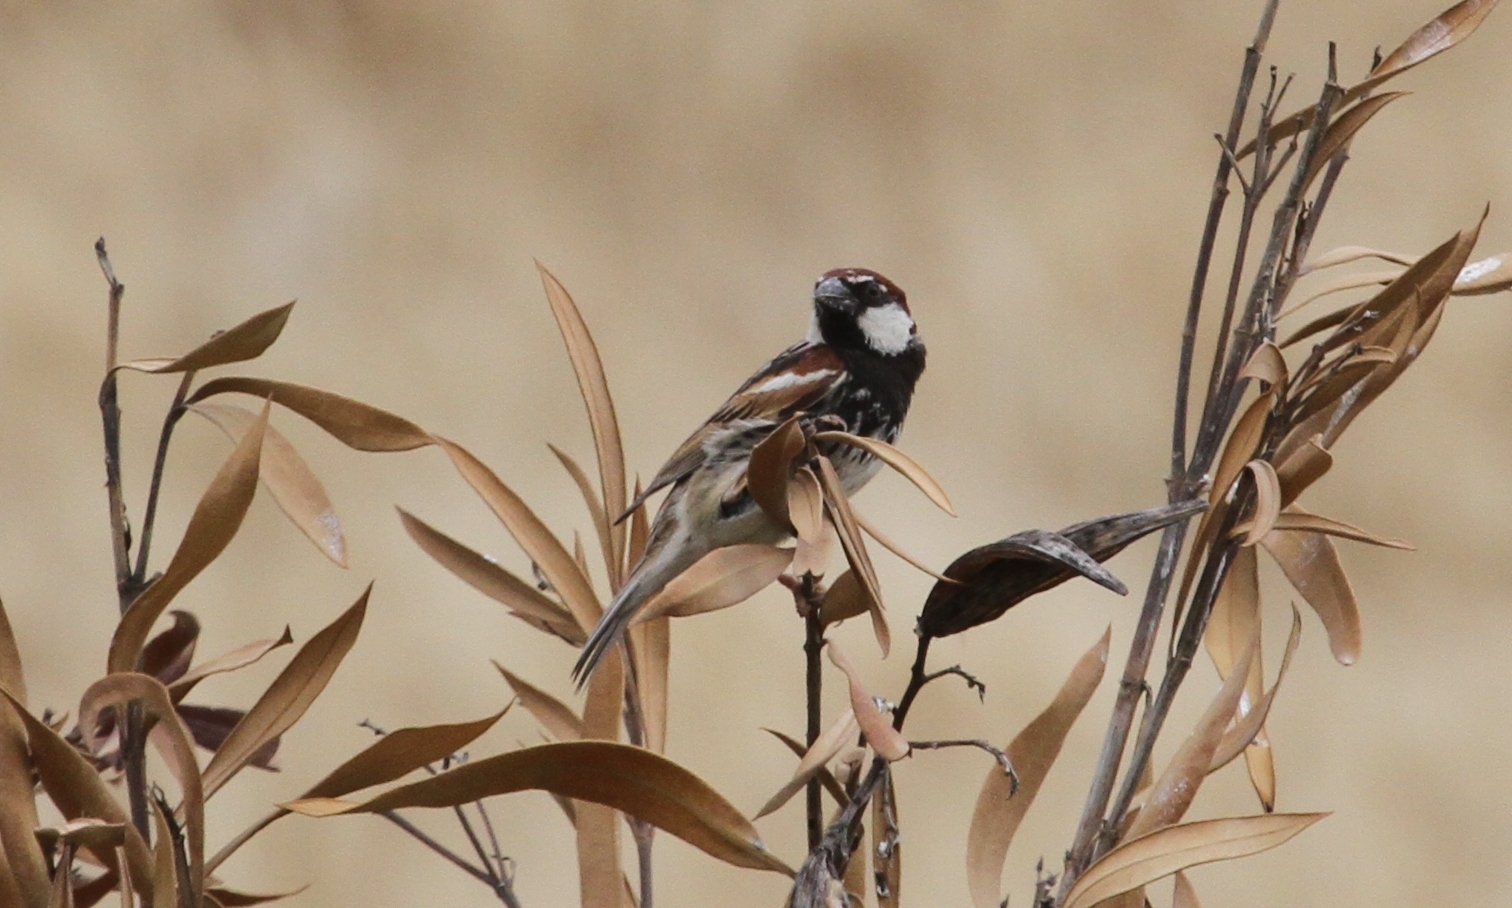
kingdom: Animalia
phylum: Chordata
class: Aves
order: Passeriformes
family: Passeridae
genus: Passer
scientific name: Passer hispaniolensis
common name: Spanish sparrow
